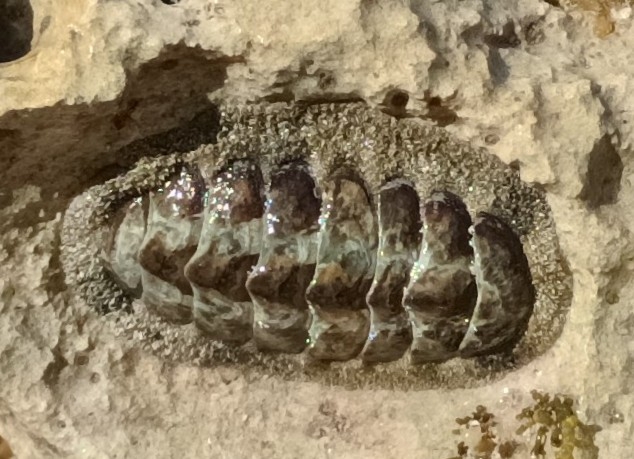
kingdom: Animalia
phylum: Mollusca
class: Polyplacophora
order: Chitonida
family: Chitonidae
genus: Acanthopleura
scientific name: Acanthopleura granulata
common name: West indian fuzzy chiton
